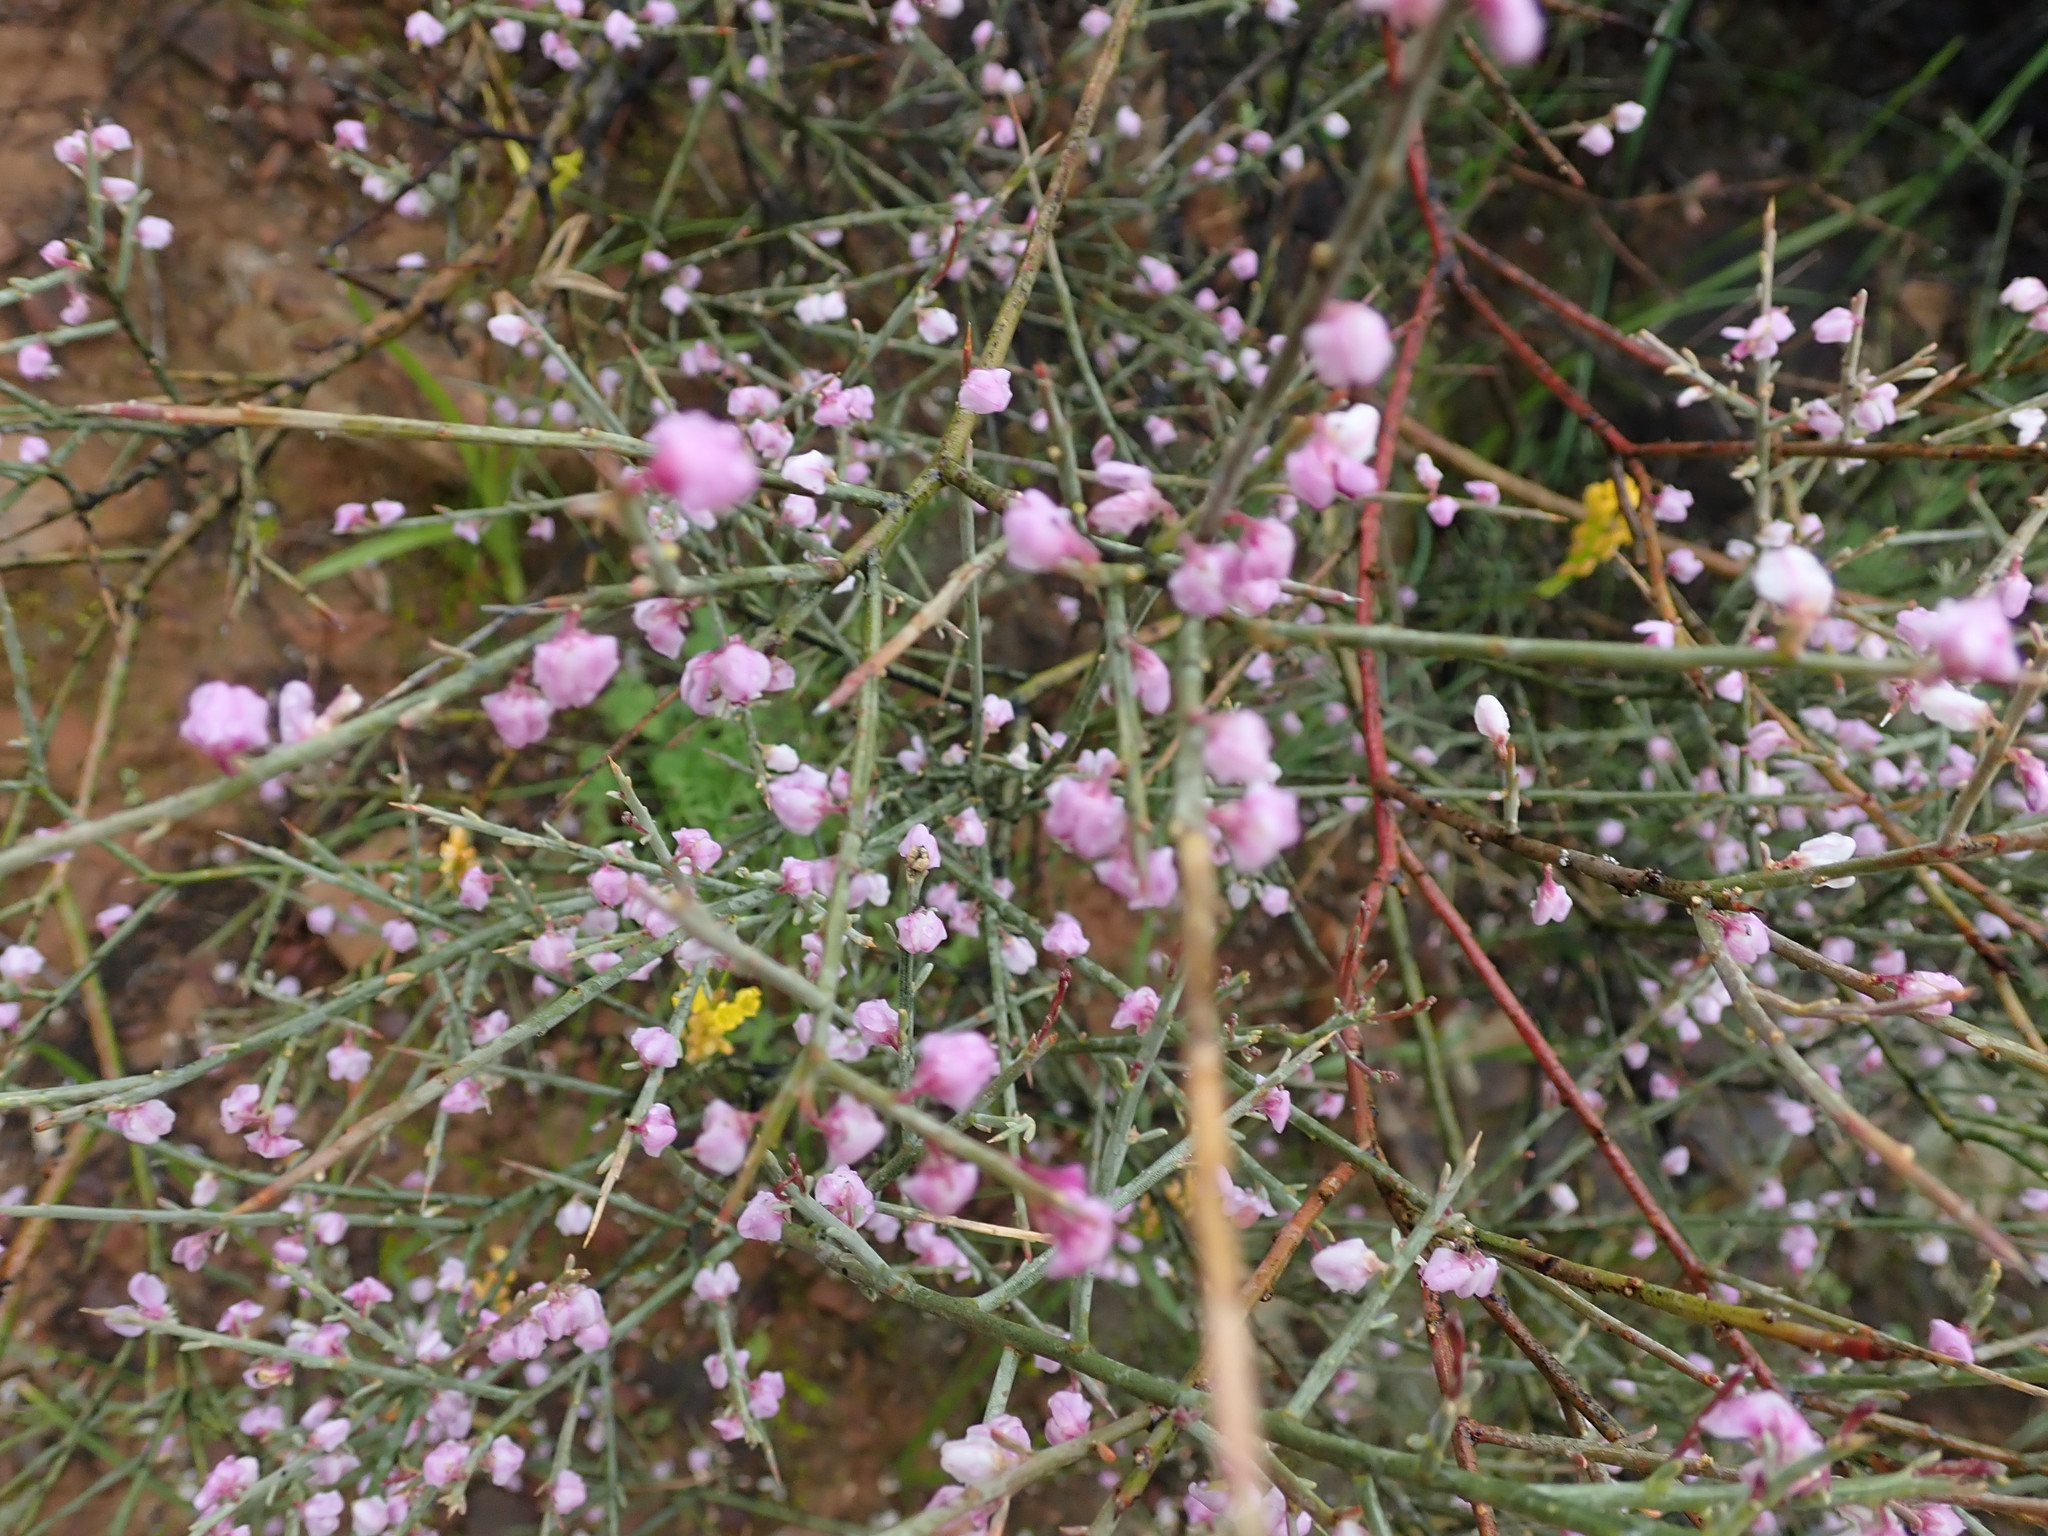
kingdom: Plantae
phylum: Tracheophyta
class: Magnoliopsida
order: Fabales
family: Polygalaceae
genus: Muraltia
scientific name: Muraltia spinosa
